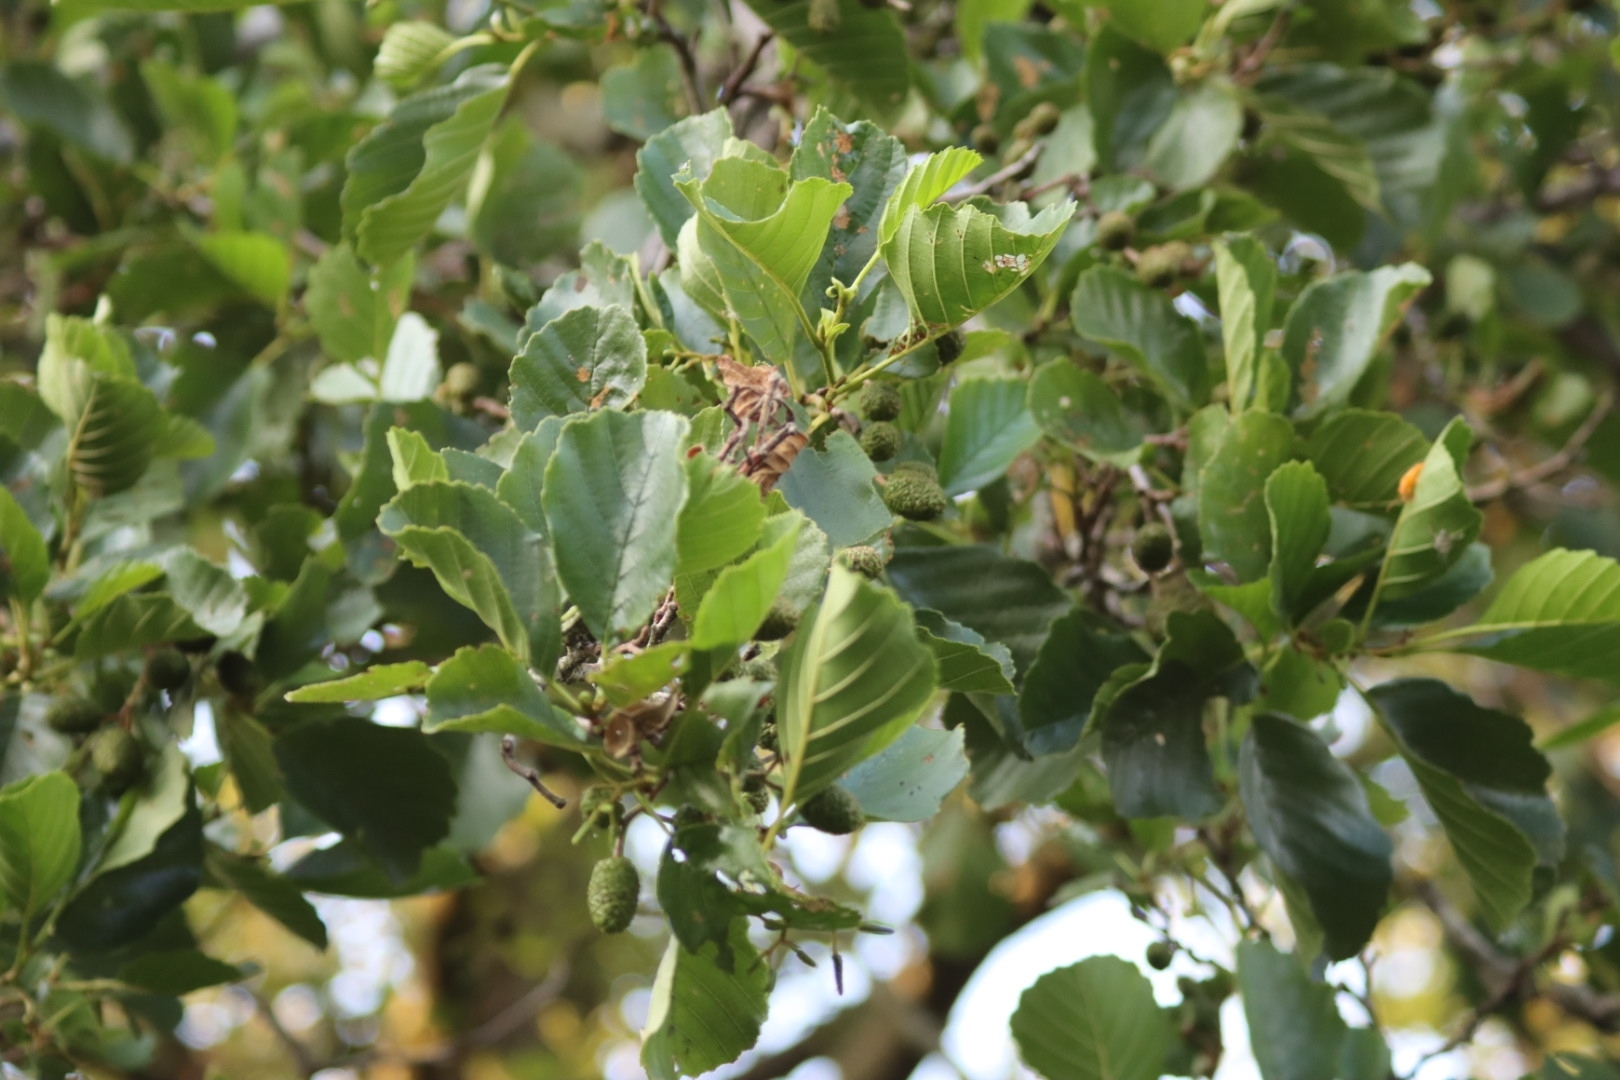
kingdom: Plantae
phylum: Tracheophyta
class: Magnoliopsida
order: Fagales
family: Betulaceae
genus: Alnus
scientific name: Alnus glutinosa
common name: Black alder
